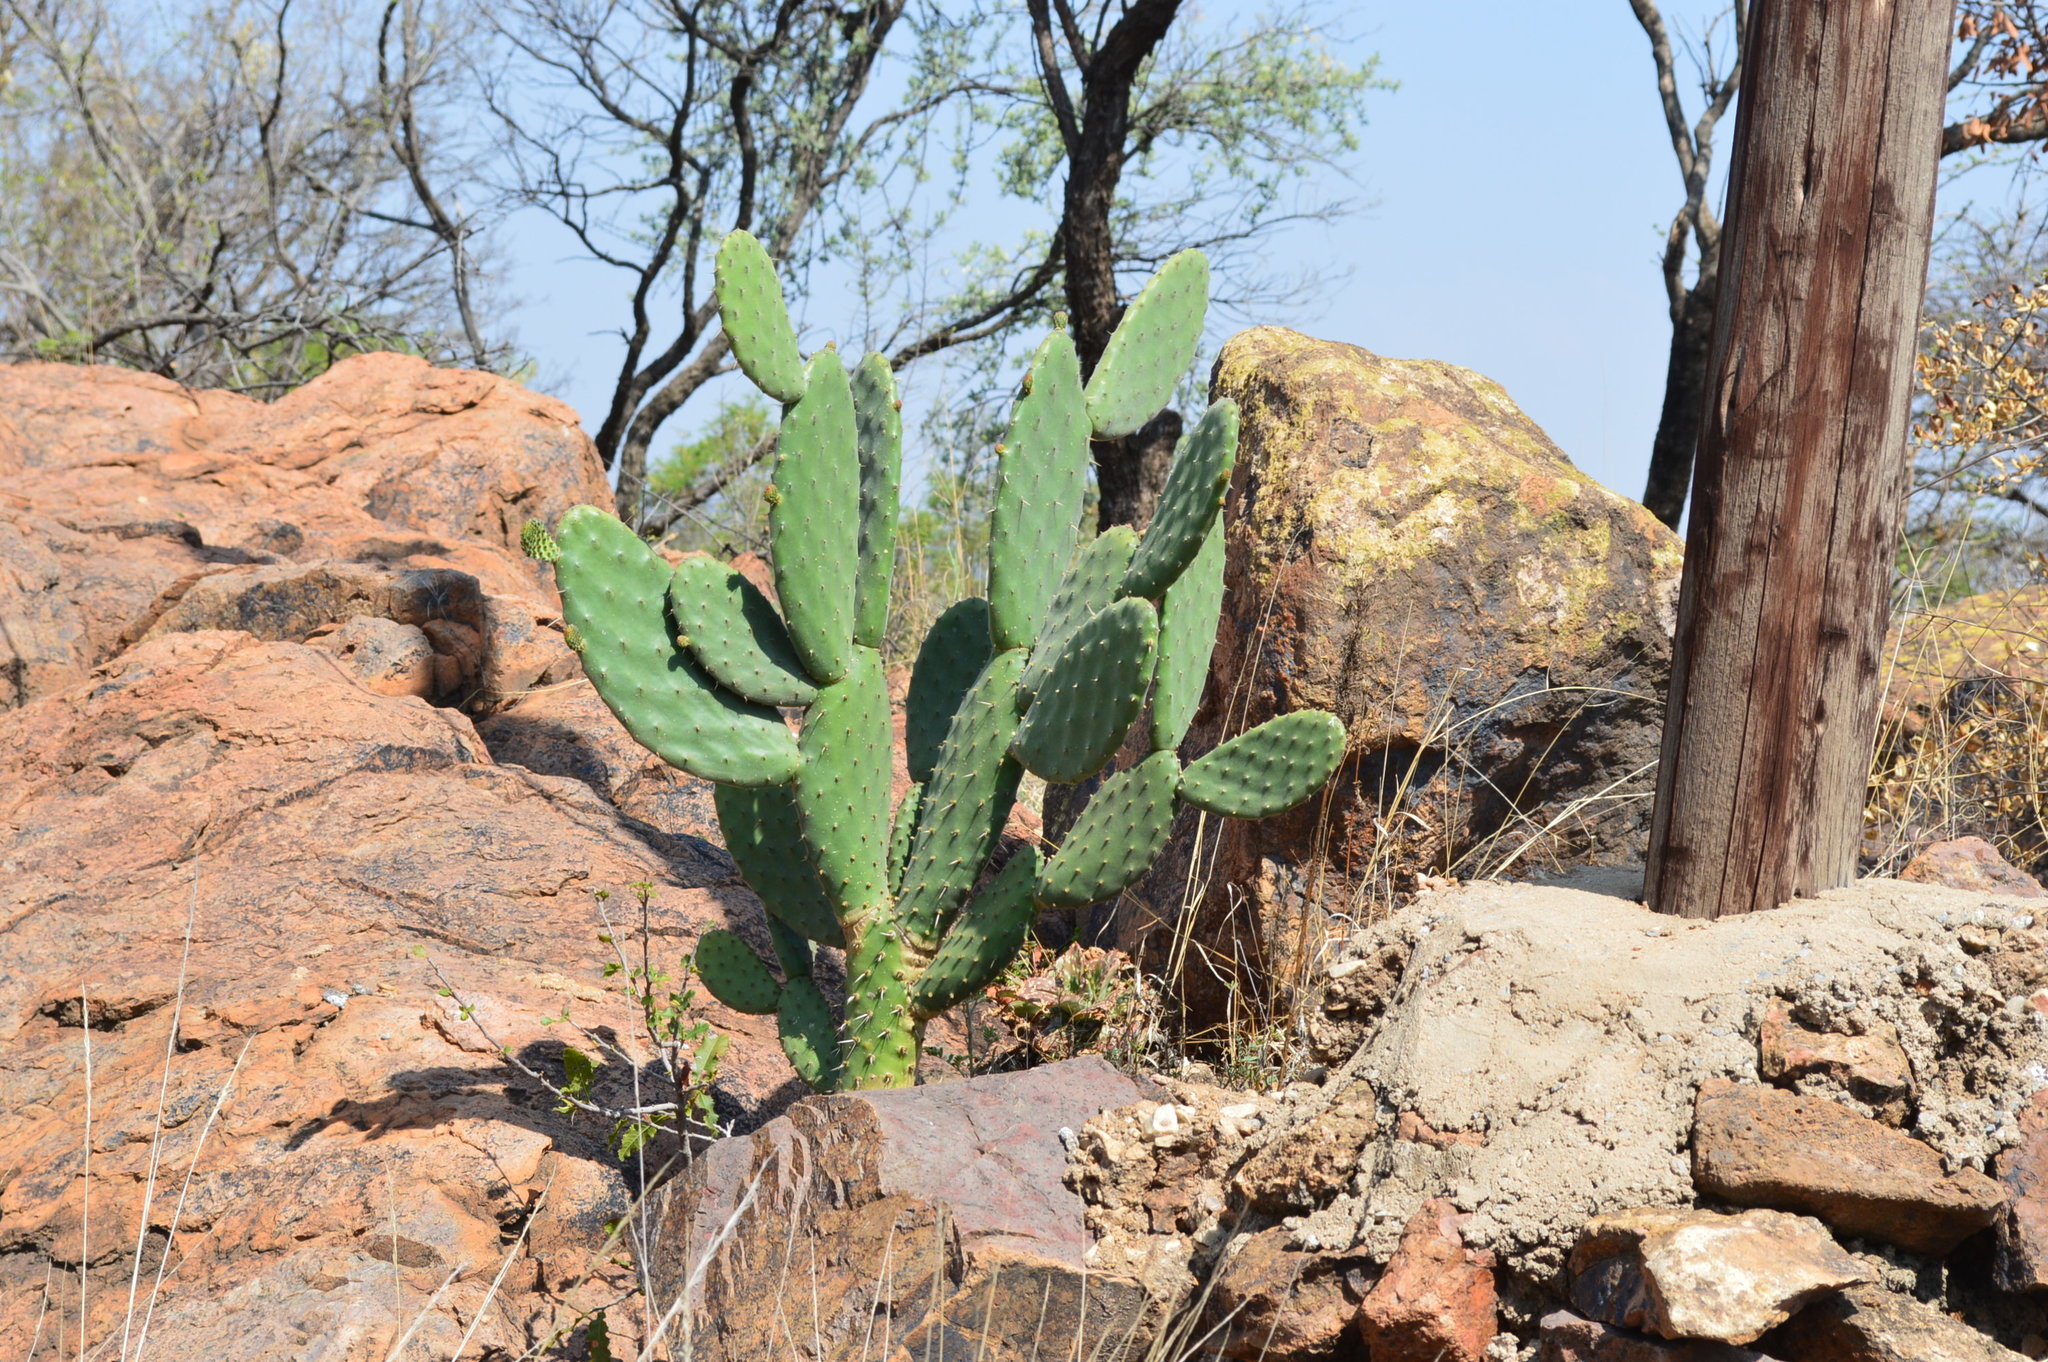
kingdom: Plantae
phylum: Tracheophyta
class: Magnoliopsida
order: Caryophyllales
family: Cactaceae
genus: Opuntia
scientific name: Opuntia ficus-indica
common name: Barbary fig
